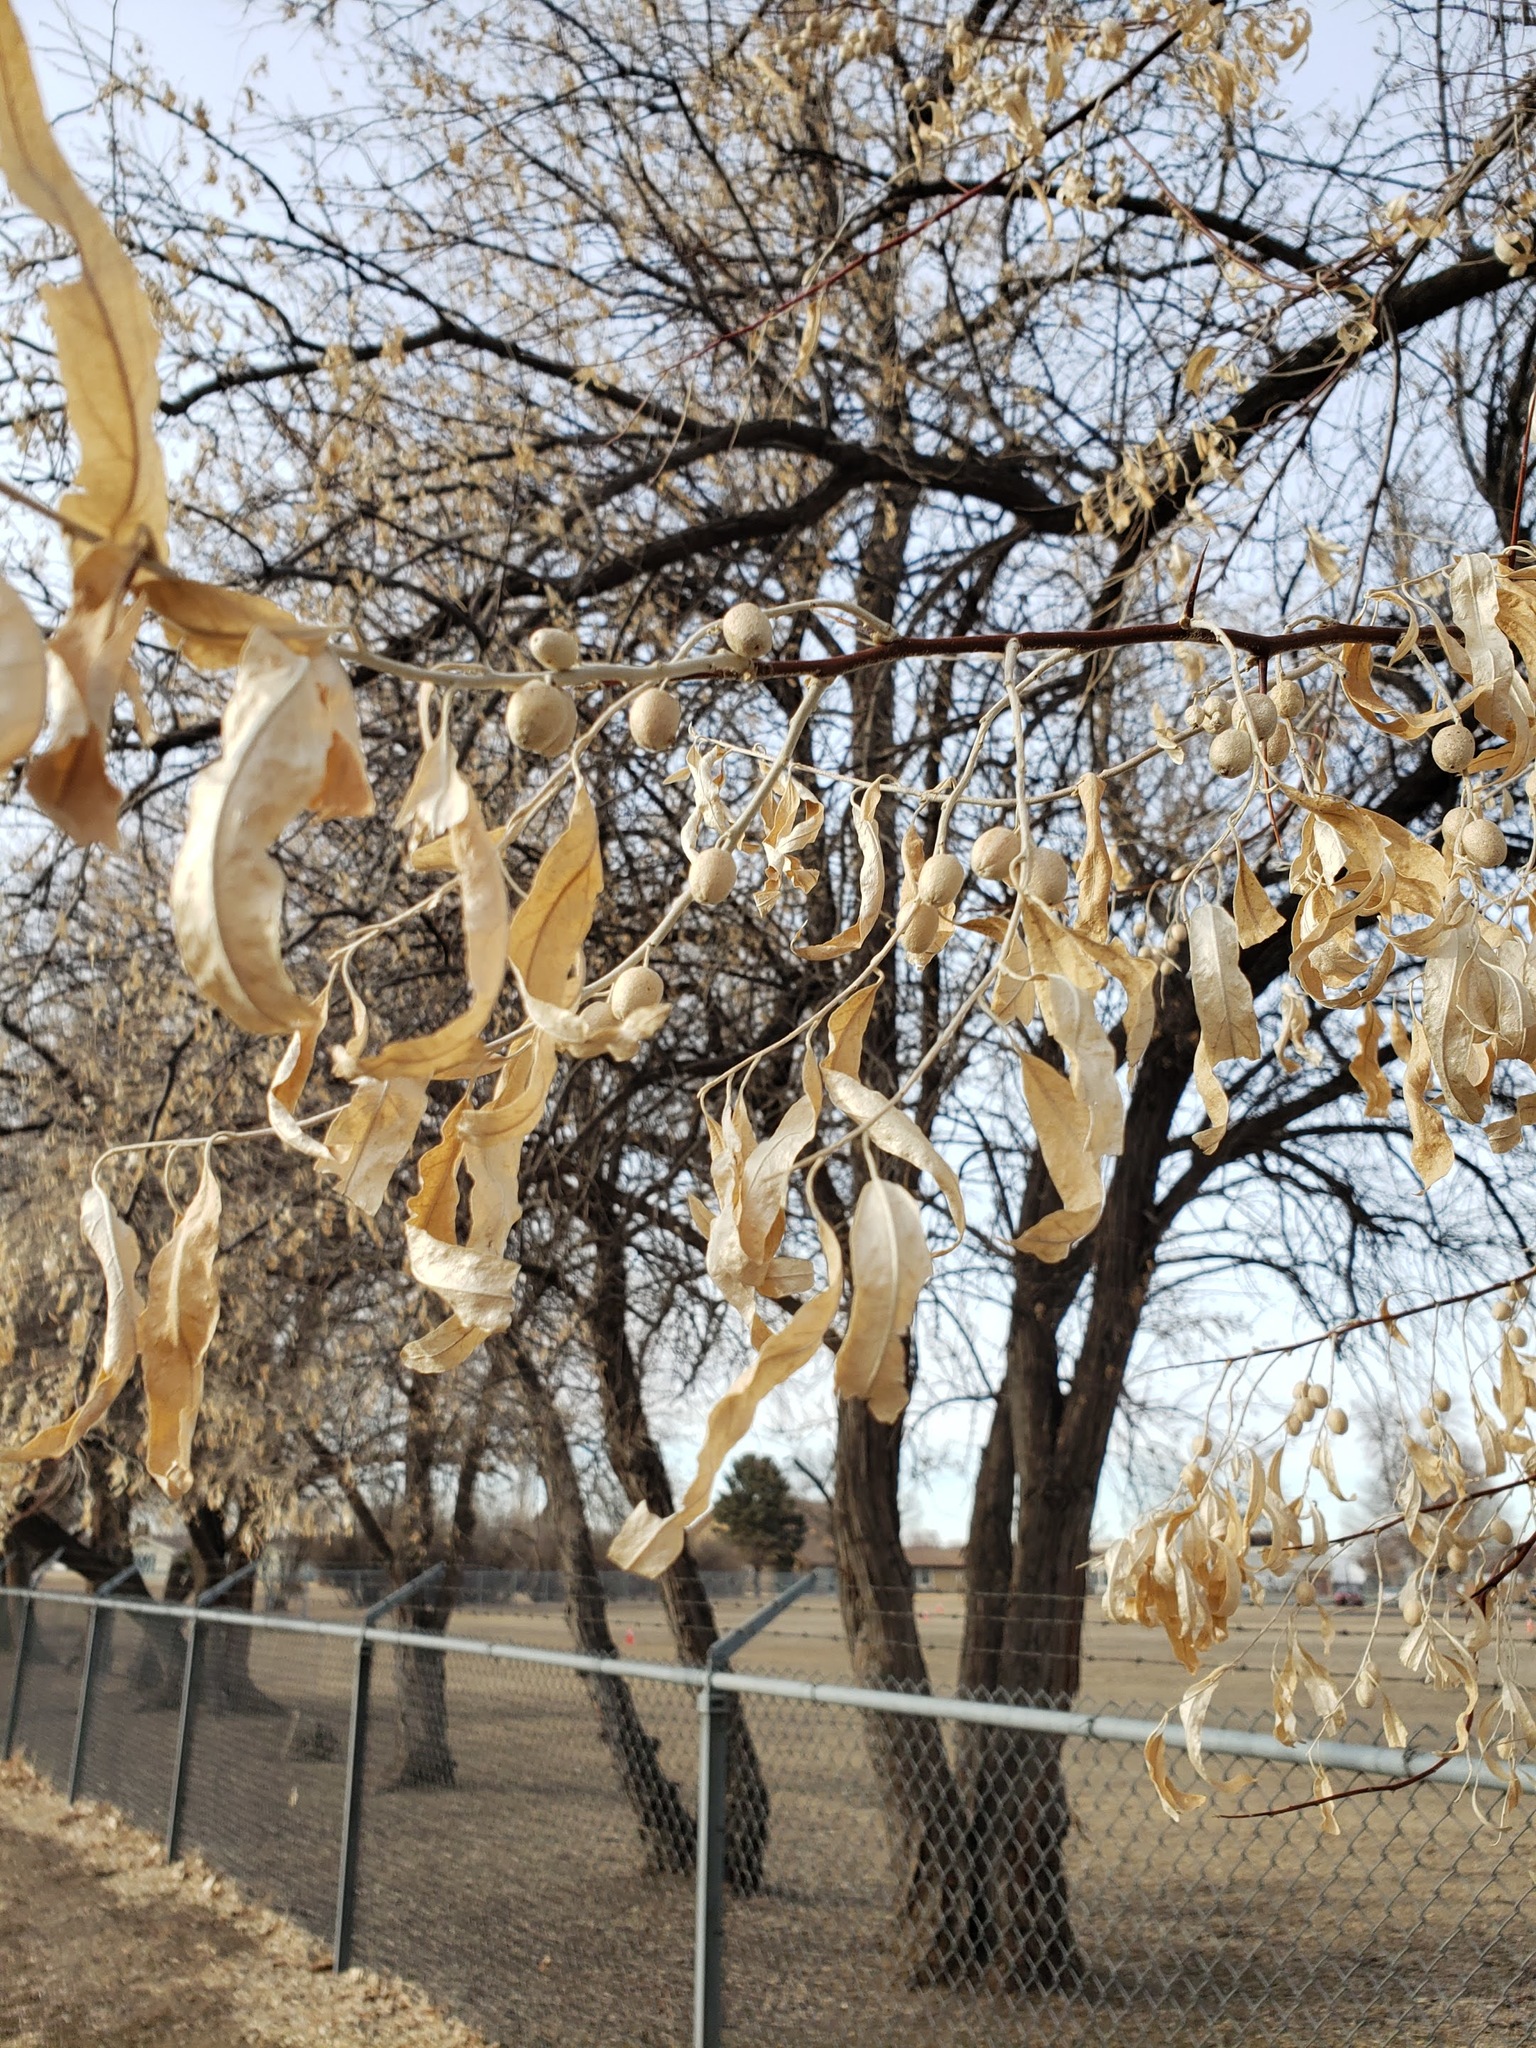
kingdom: Plantae
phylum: Tracheophyta
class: Magnoliopsida
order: Rosales
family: Elaeagnaceae
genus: Elaeagnus
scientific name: Elaeagnus angustifolia
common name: Russian olive
